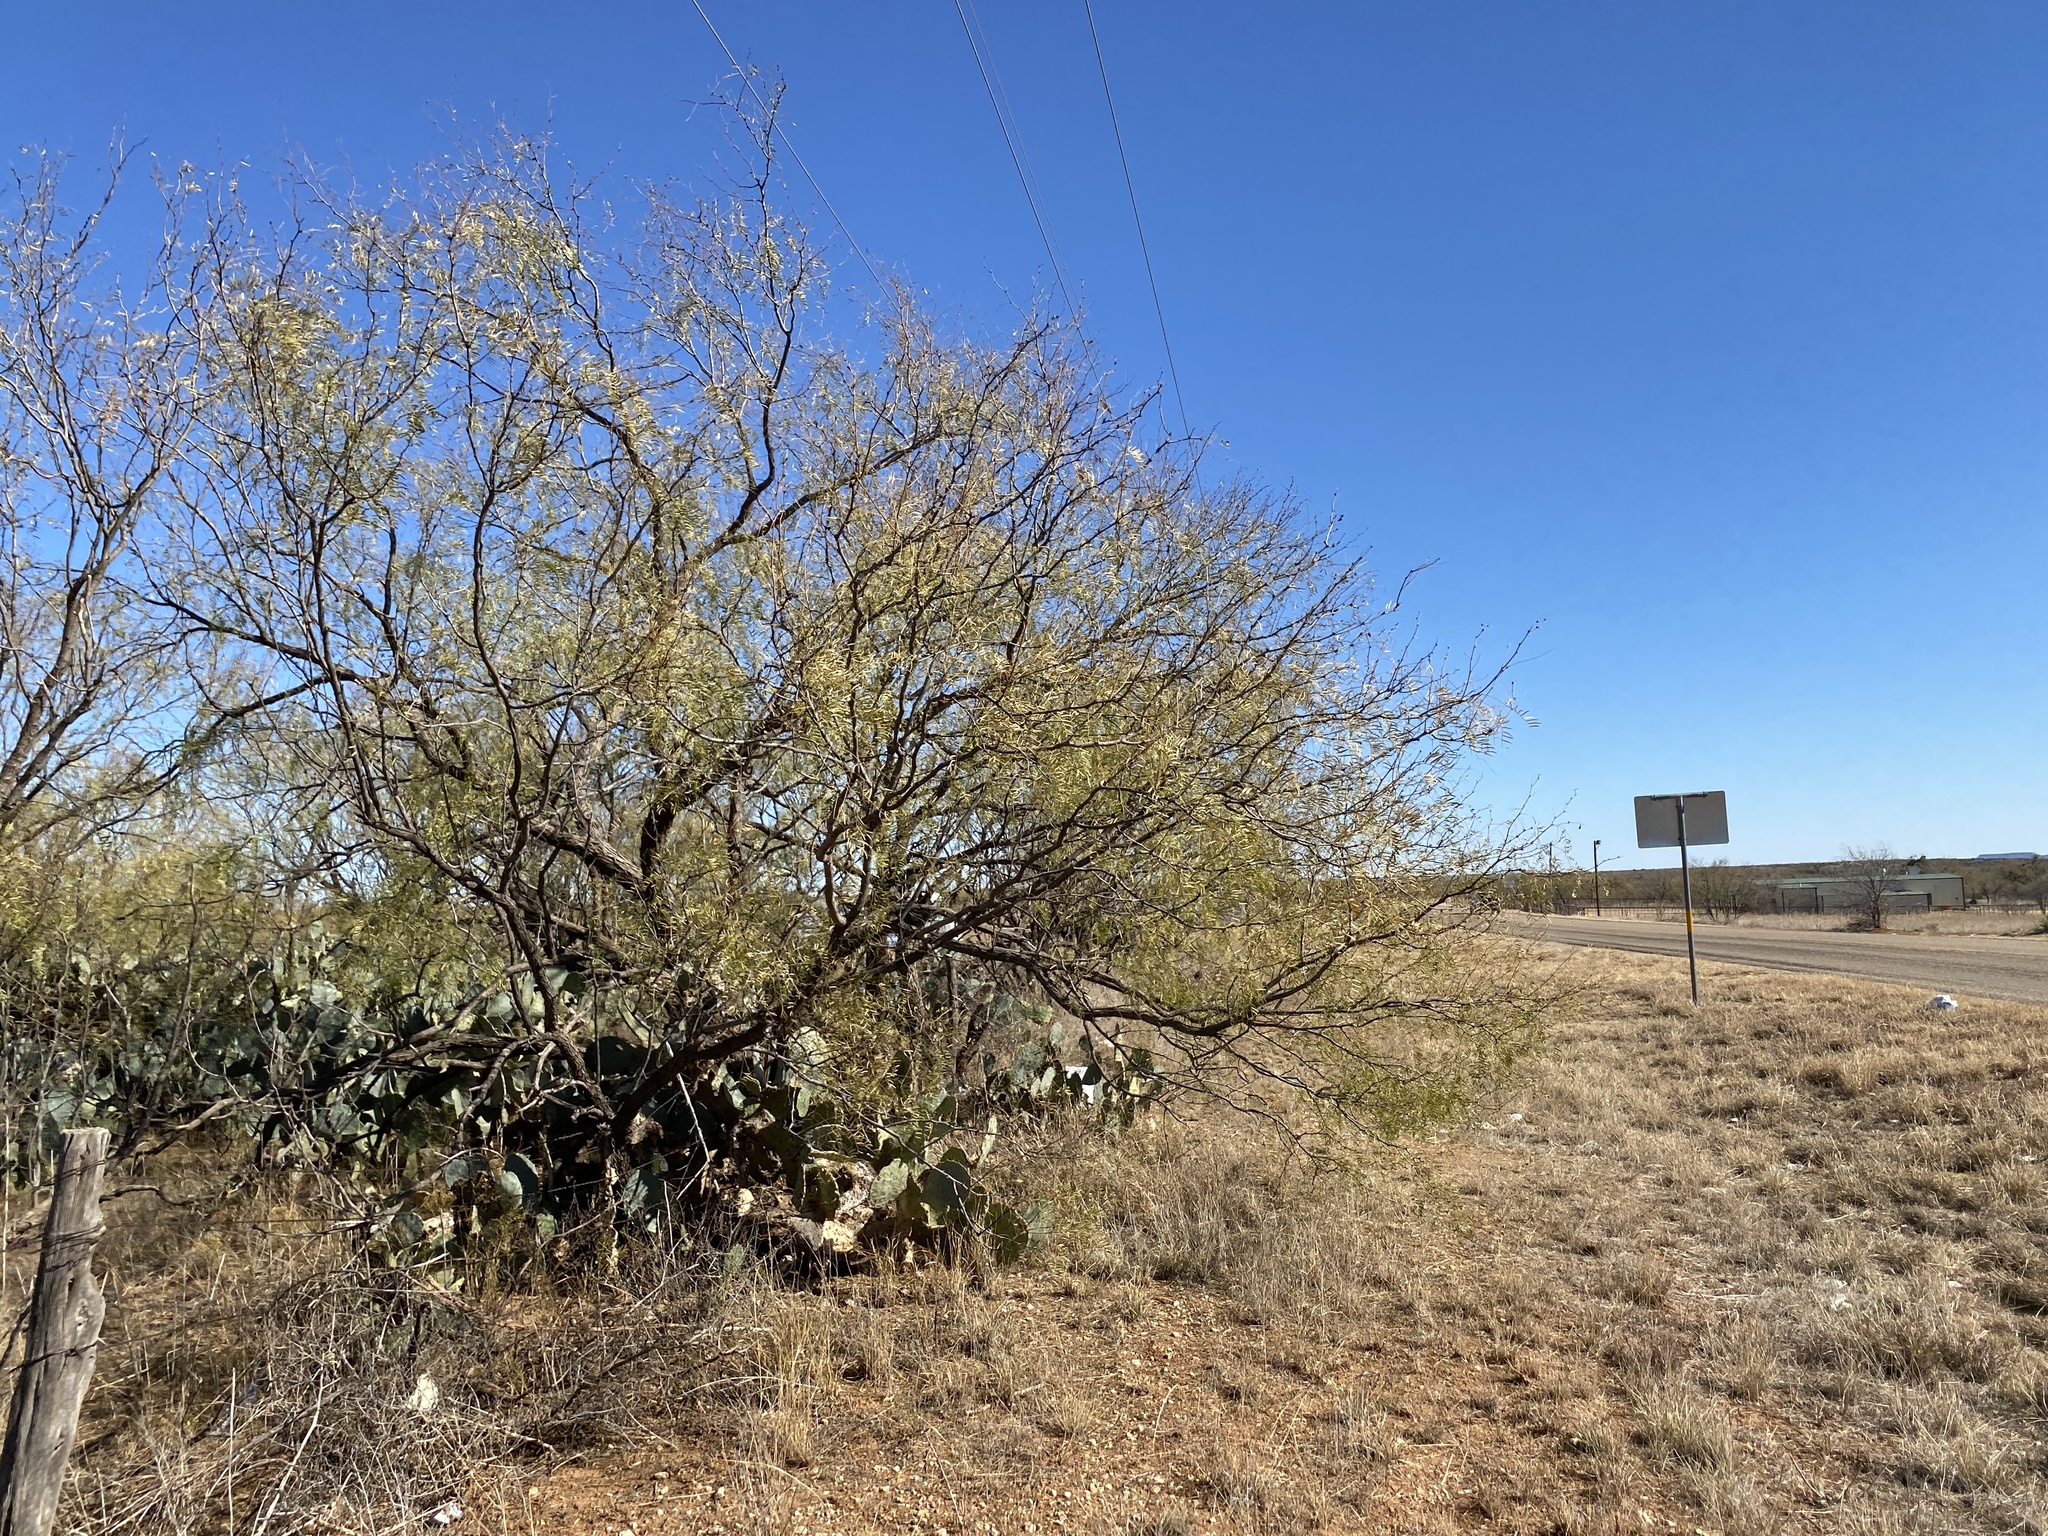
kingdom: Plantae
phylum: Tracheophyta
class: Magnoliopsida
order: Fabales
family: Fabaceae
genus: Prosopis
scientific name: Prosopis glandulosa
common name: Honey mesquite
